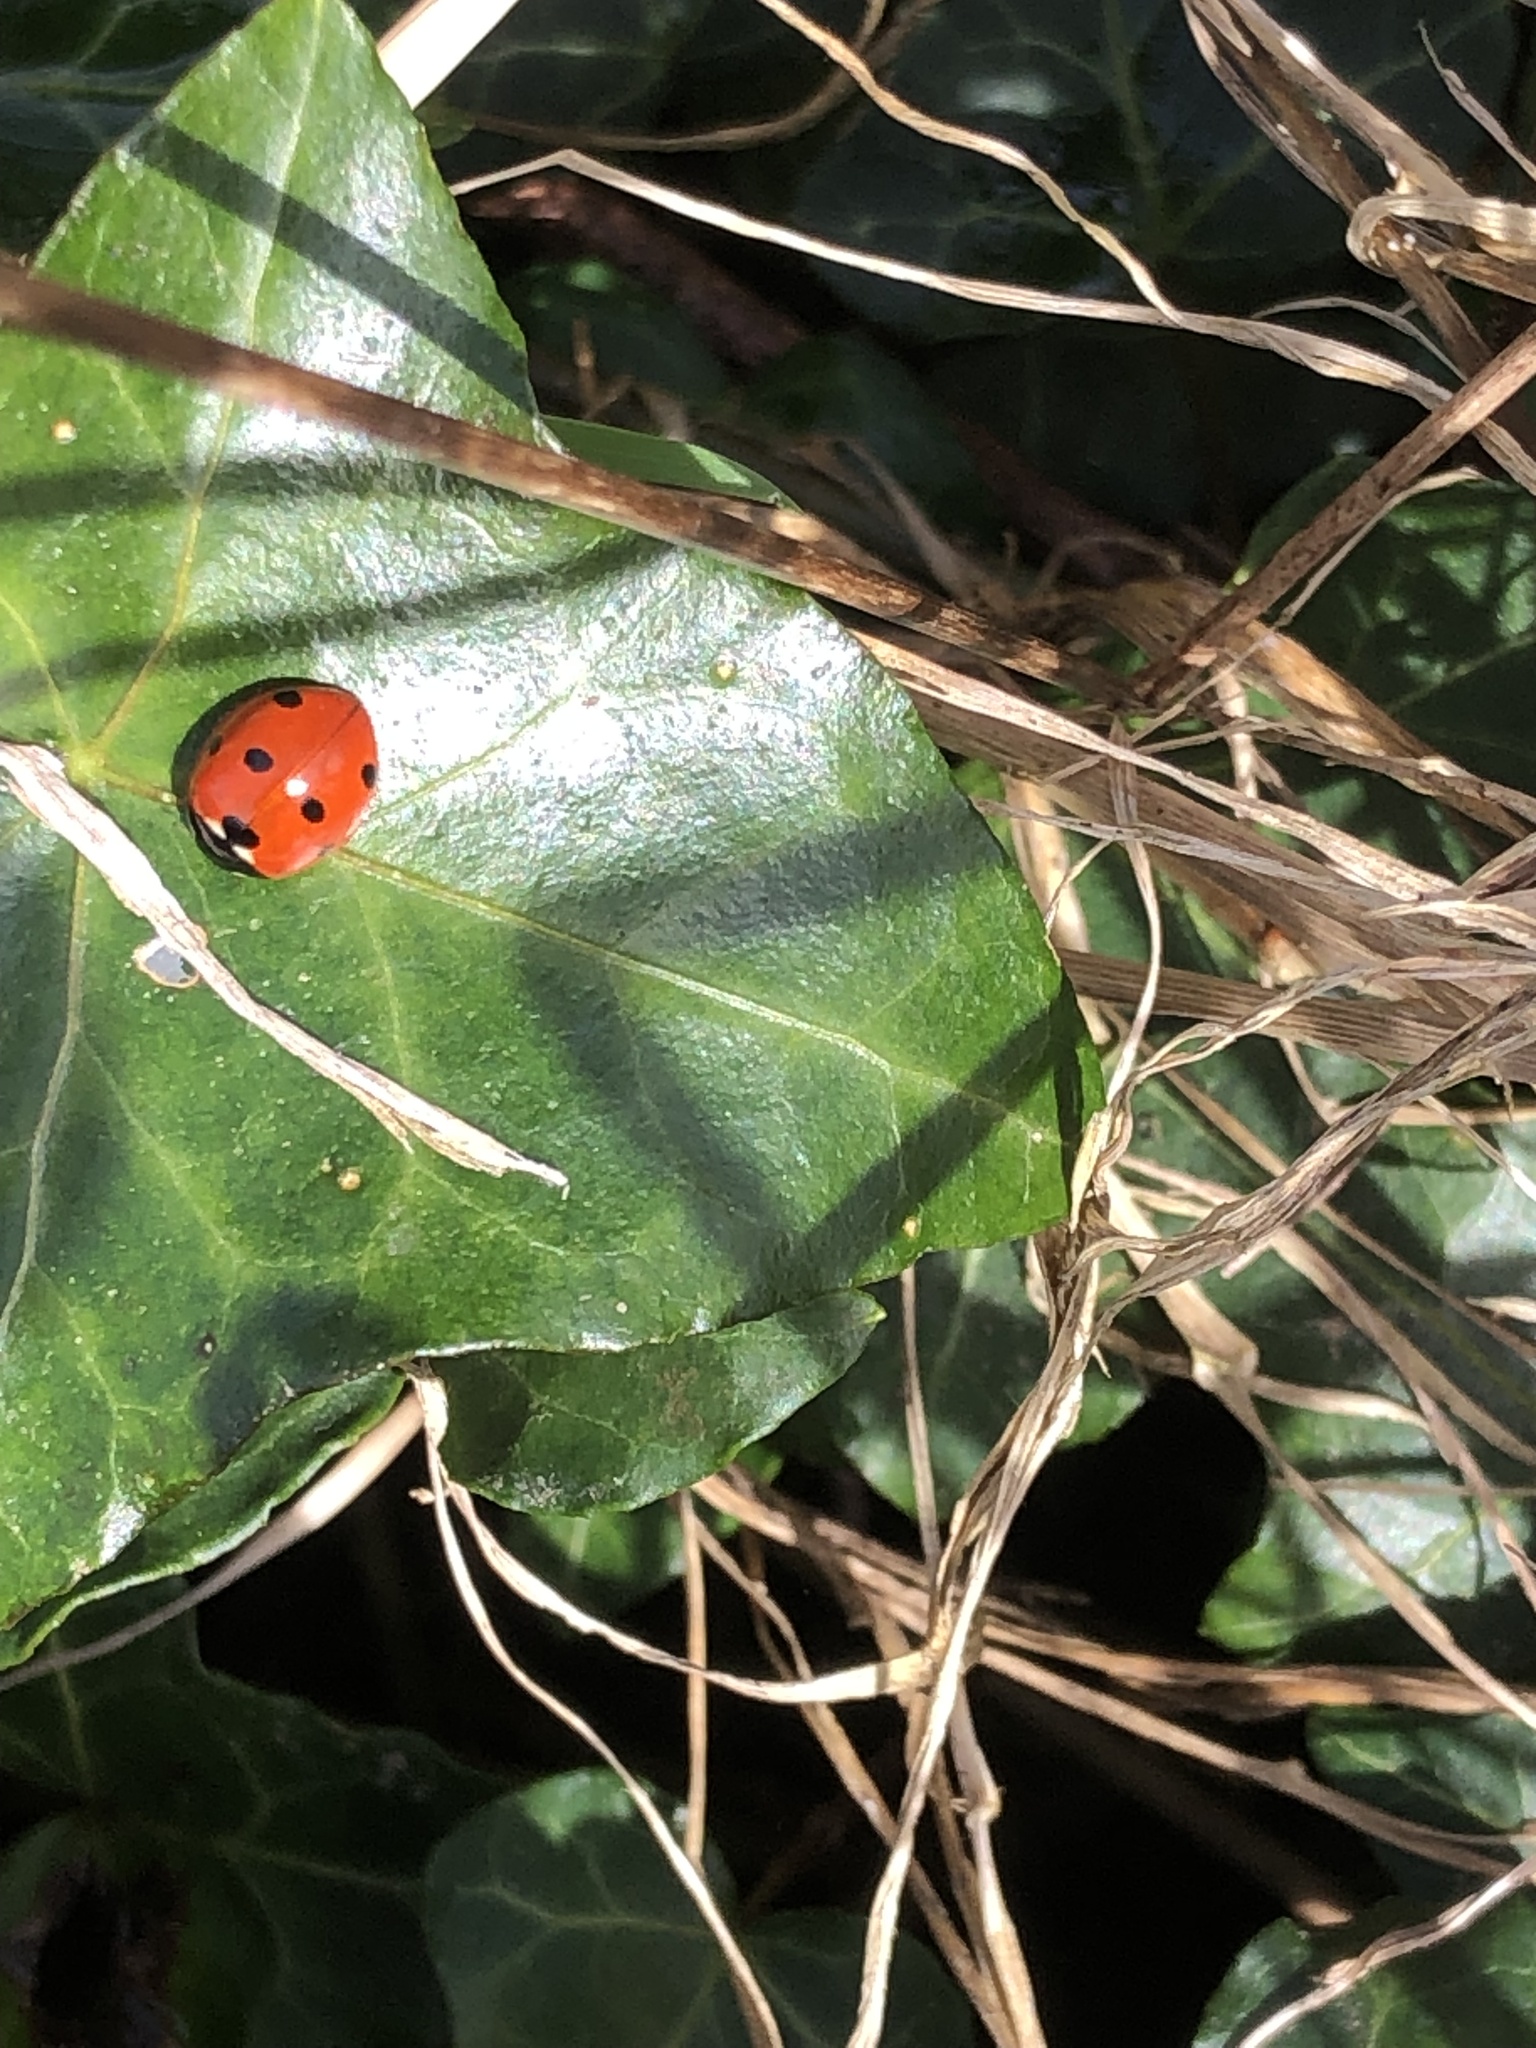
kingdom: Animalia
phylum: Arthropoda
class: Insecta
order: Coleoptera
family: Coccinellidae
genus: Coccinella
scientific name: Coccinella septempunctata
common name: Sevenspotted lady beetle
